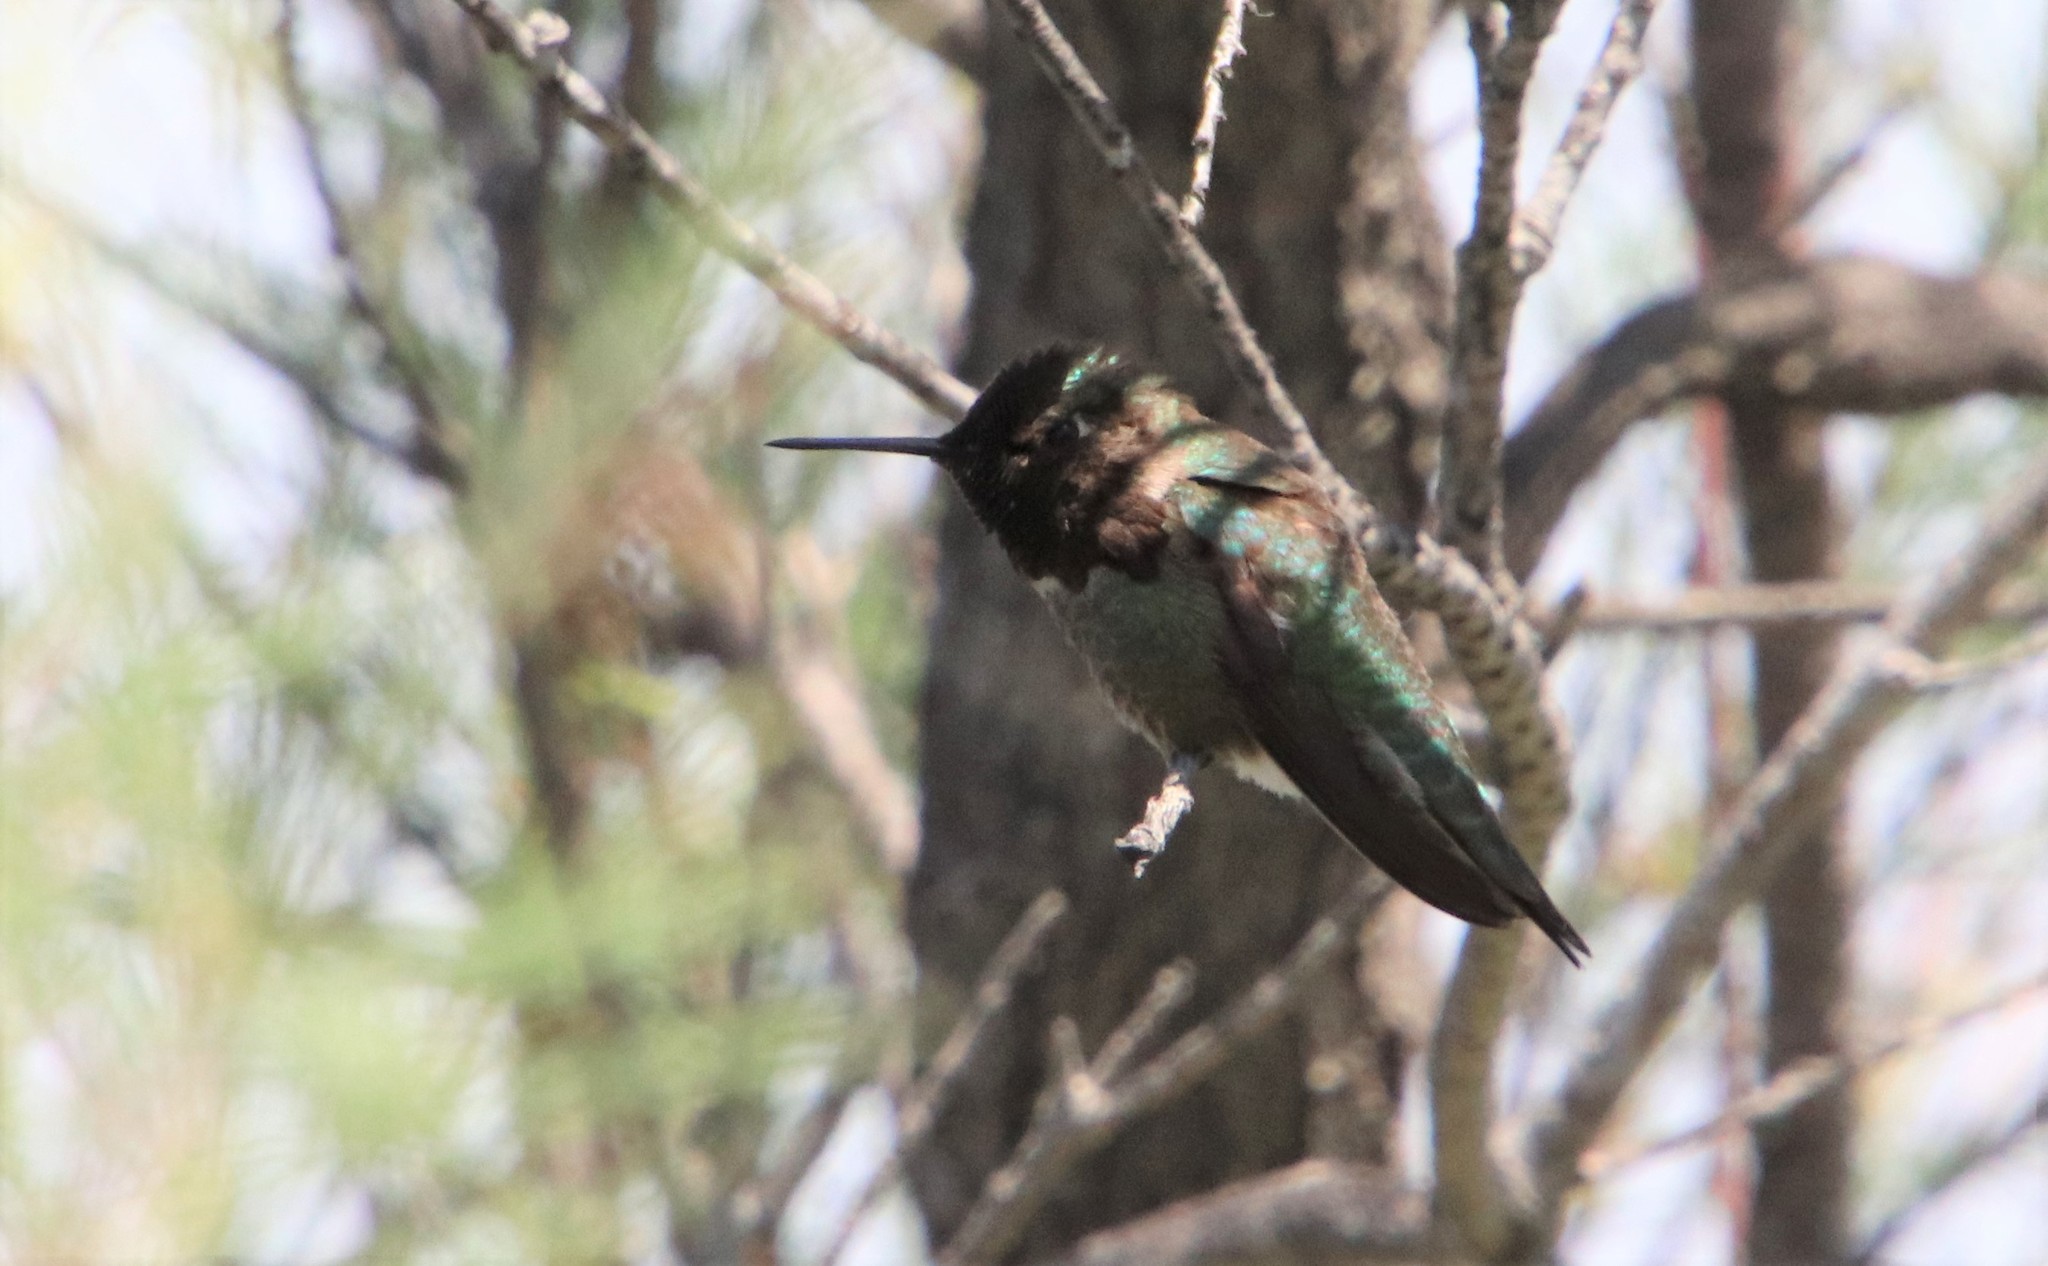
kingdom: Animalia
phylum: Chordata
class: Aves
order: Apodiformes
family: Trochilidae
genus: Calypte
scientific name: Calypte anna
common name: Anna's hummingbird
